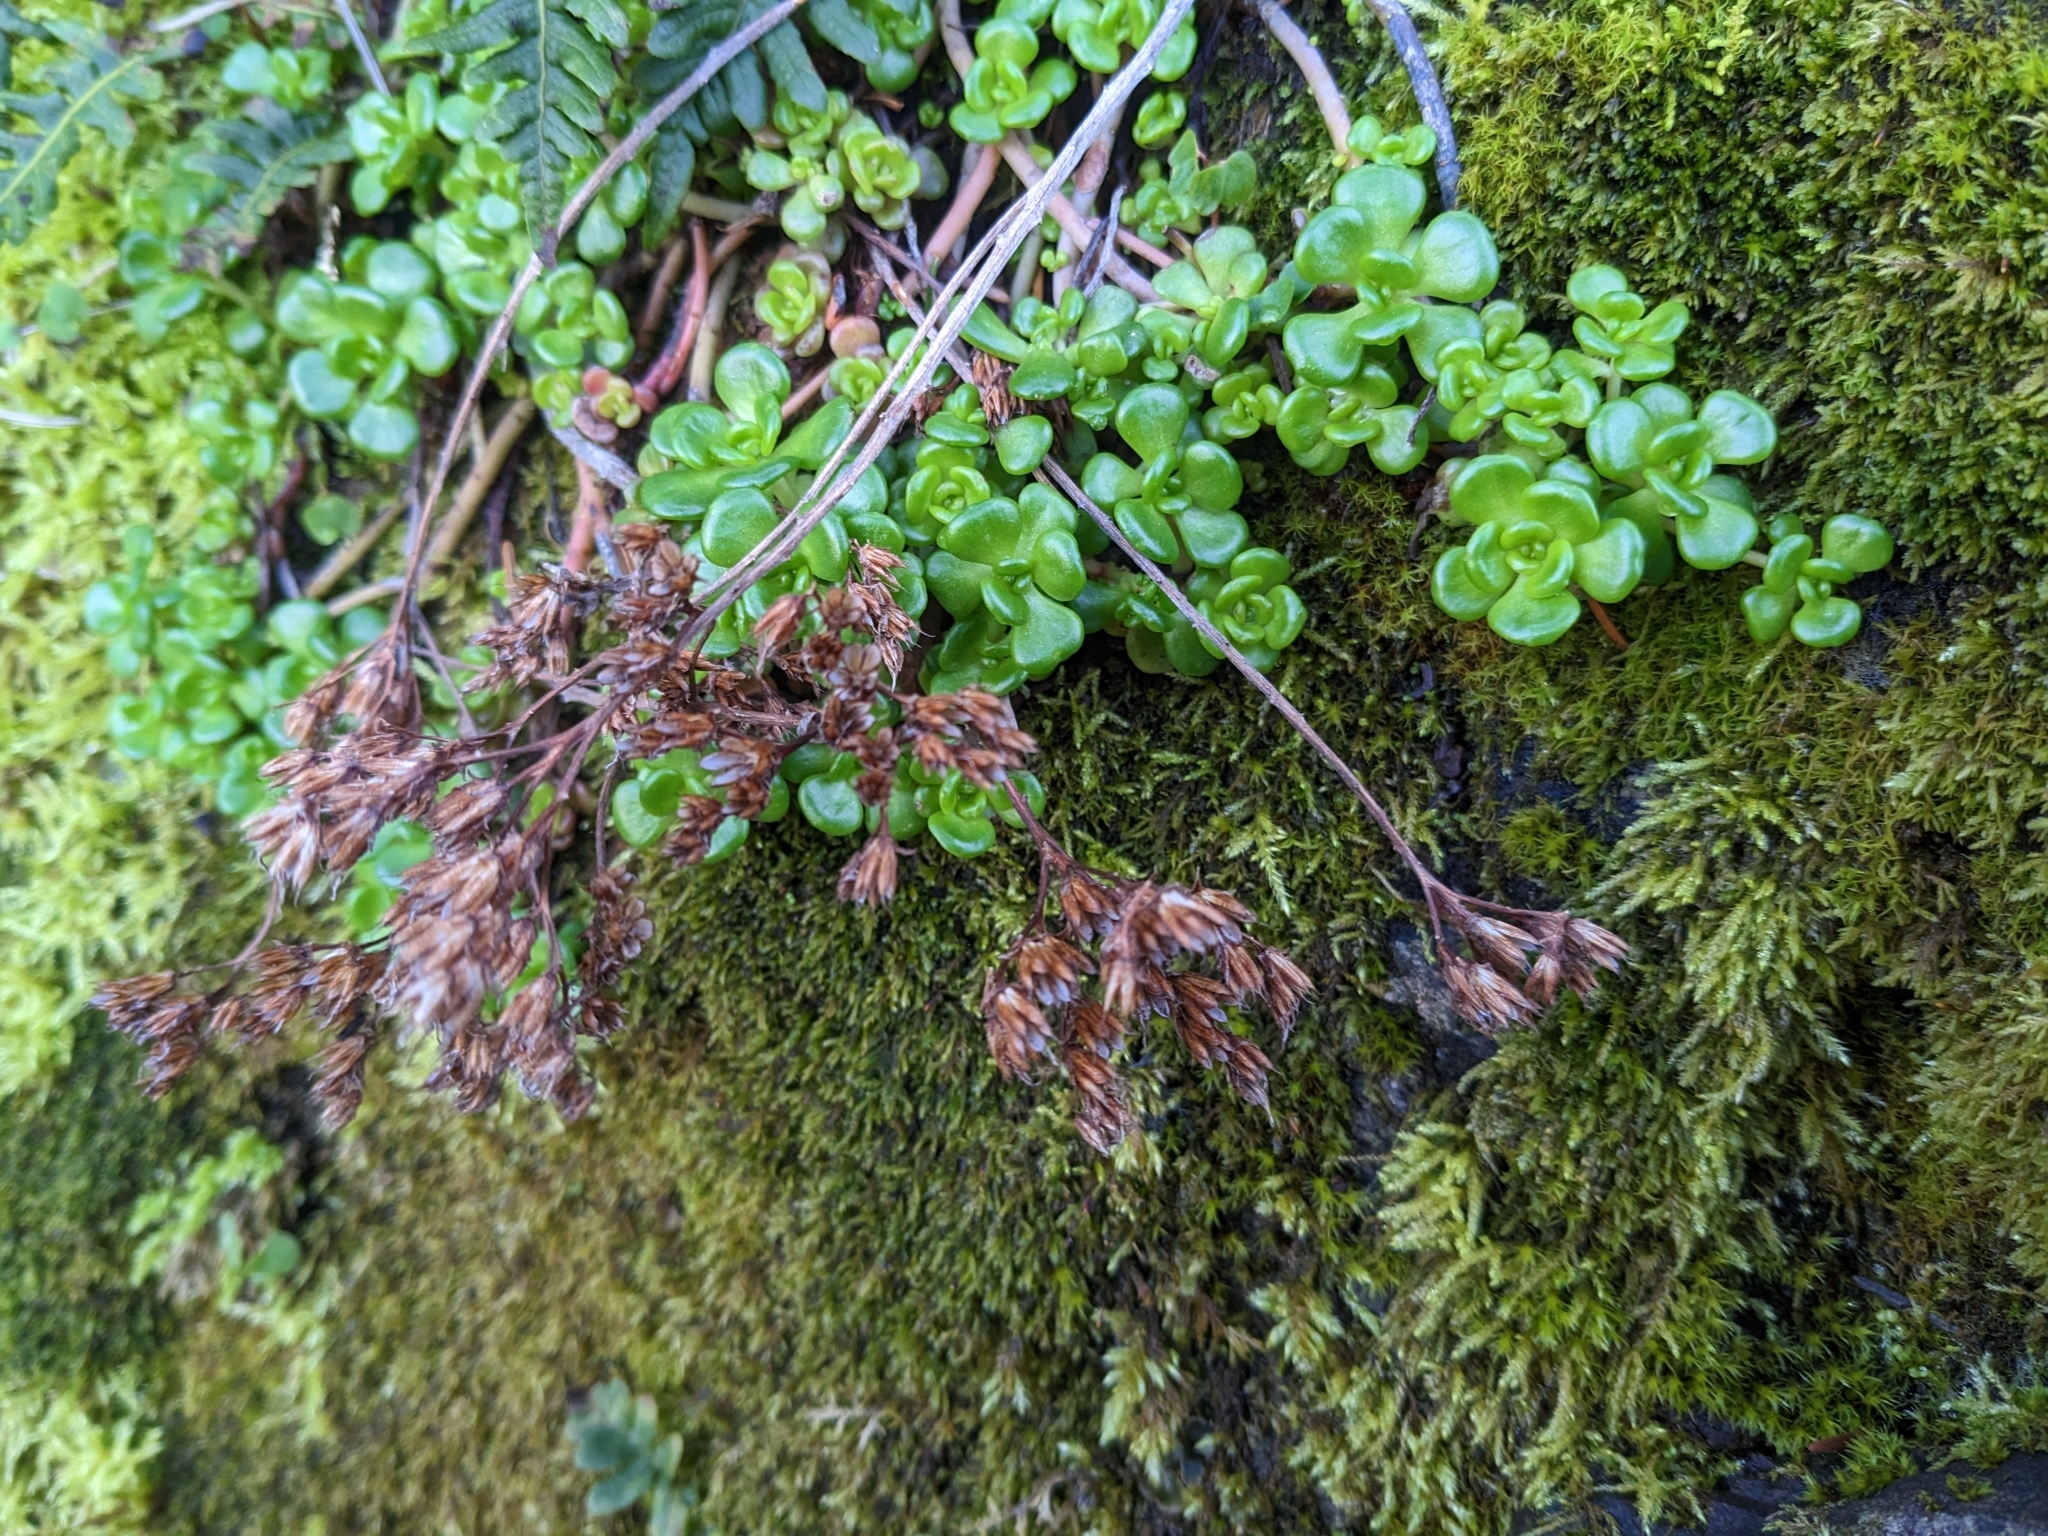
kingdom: Plantae
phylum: Tracheophyta
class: Magnoliopsida
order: Saxifragales
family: Crassulaceae
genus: Sedum
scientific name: Sedum oreganum
